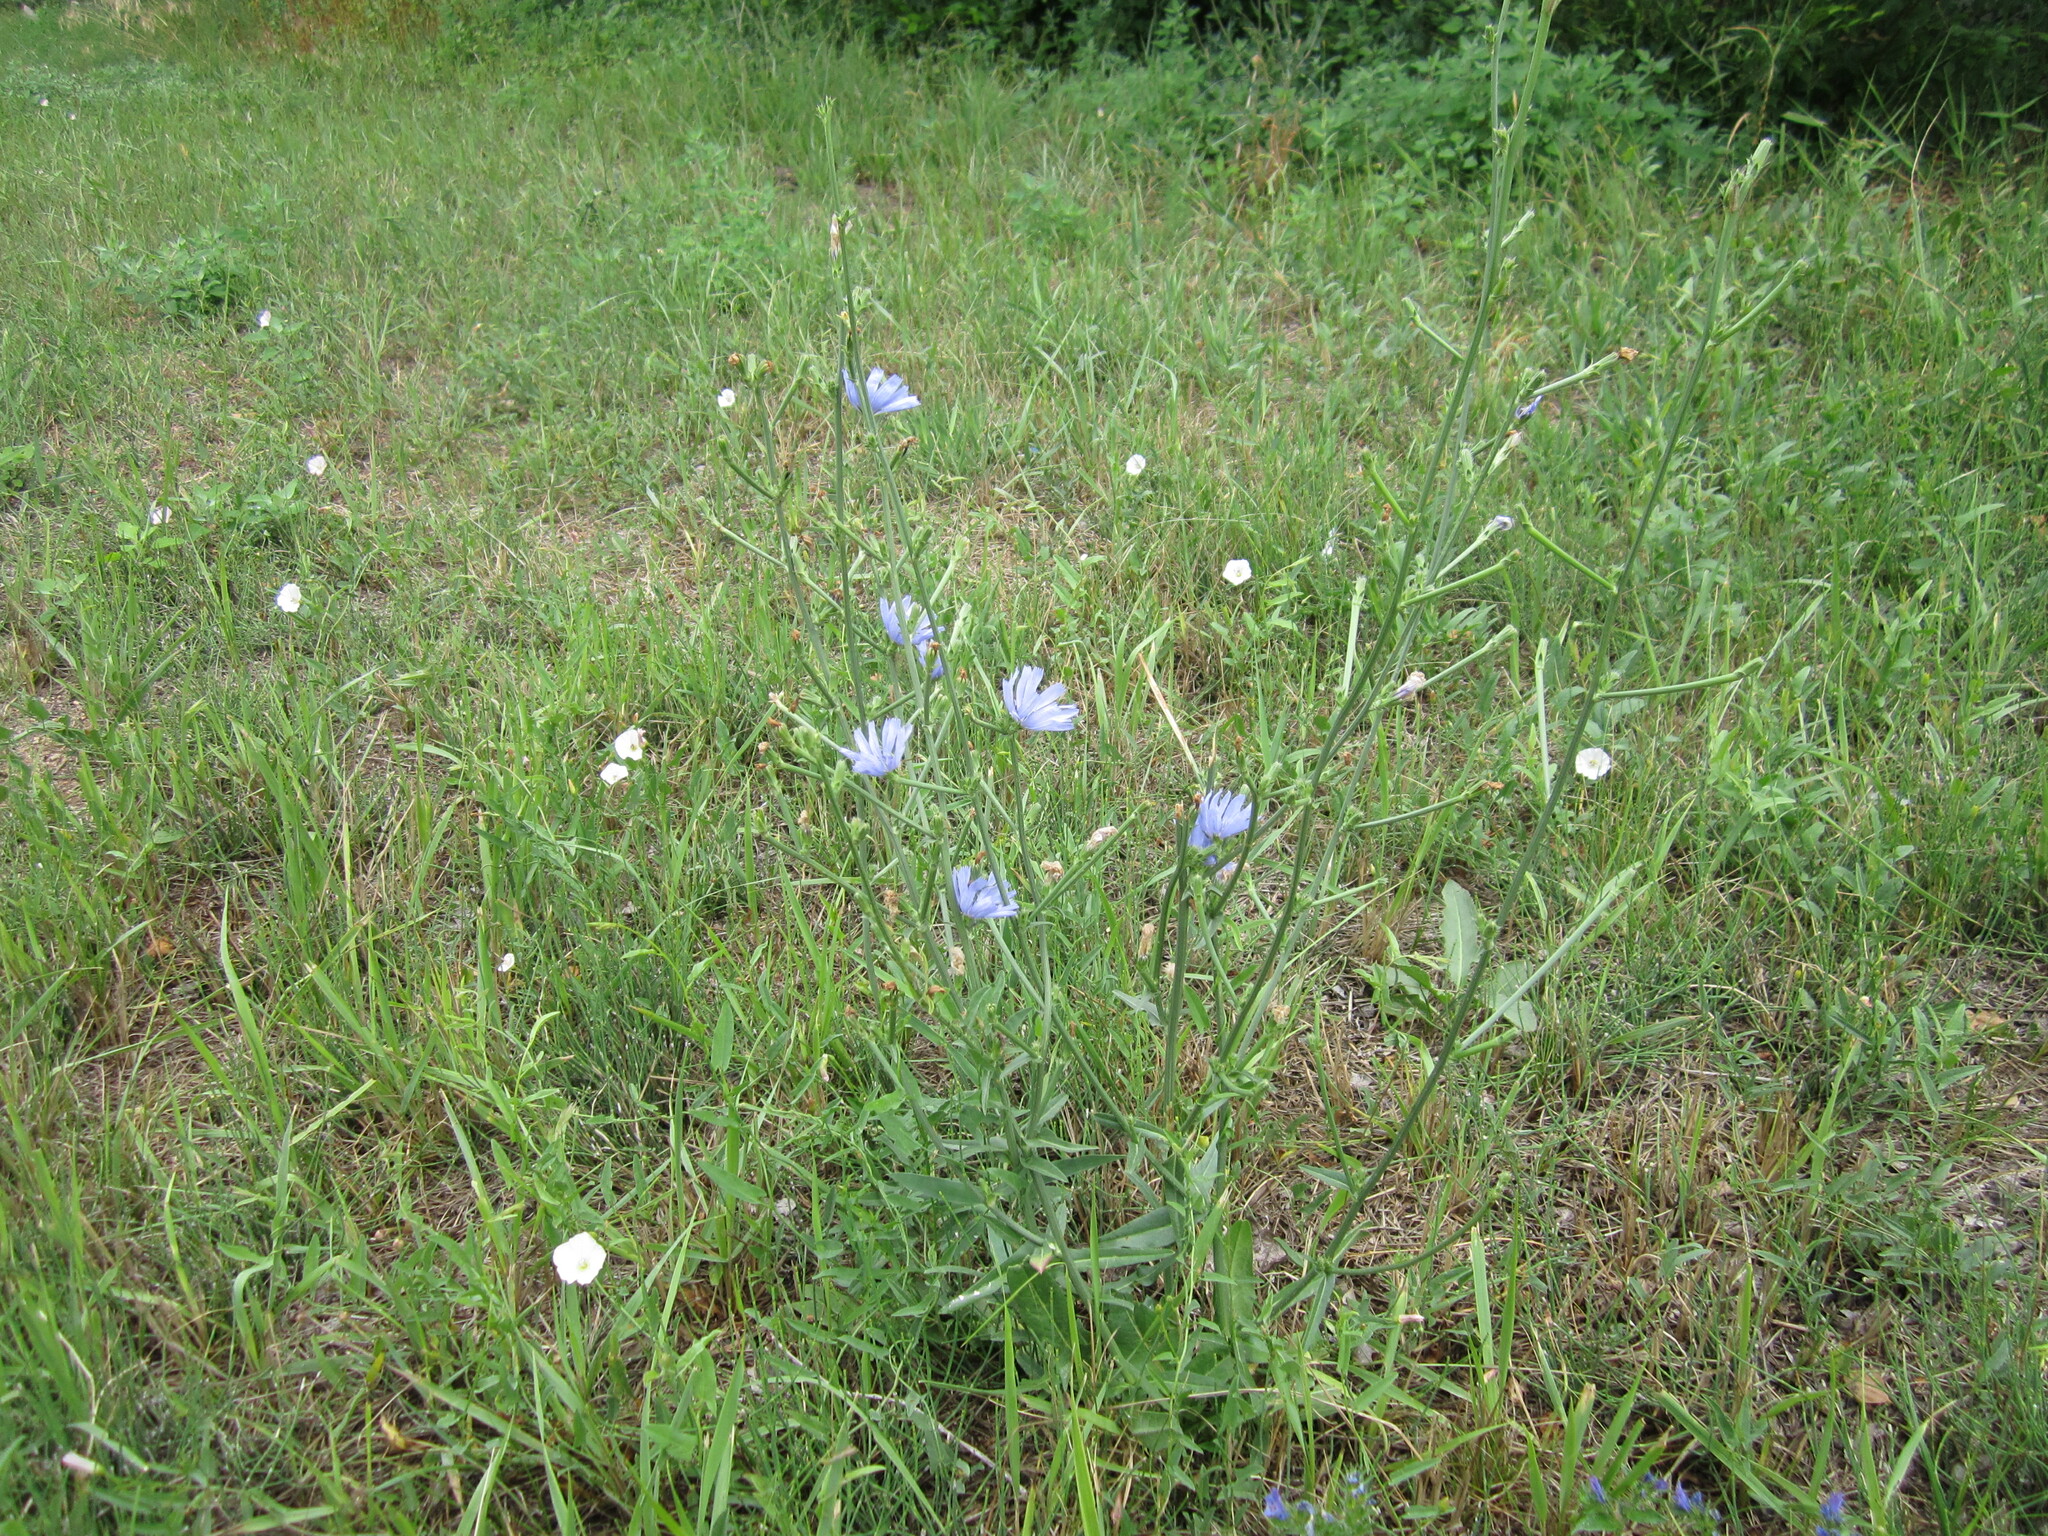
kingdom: Plantae
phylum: Tracheophyta
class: Magnoliopsida
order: Asterales
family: Asteraceae
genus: Cichorium
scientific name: Cichorium intybus
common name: Chicory
